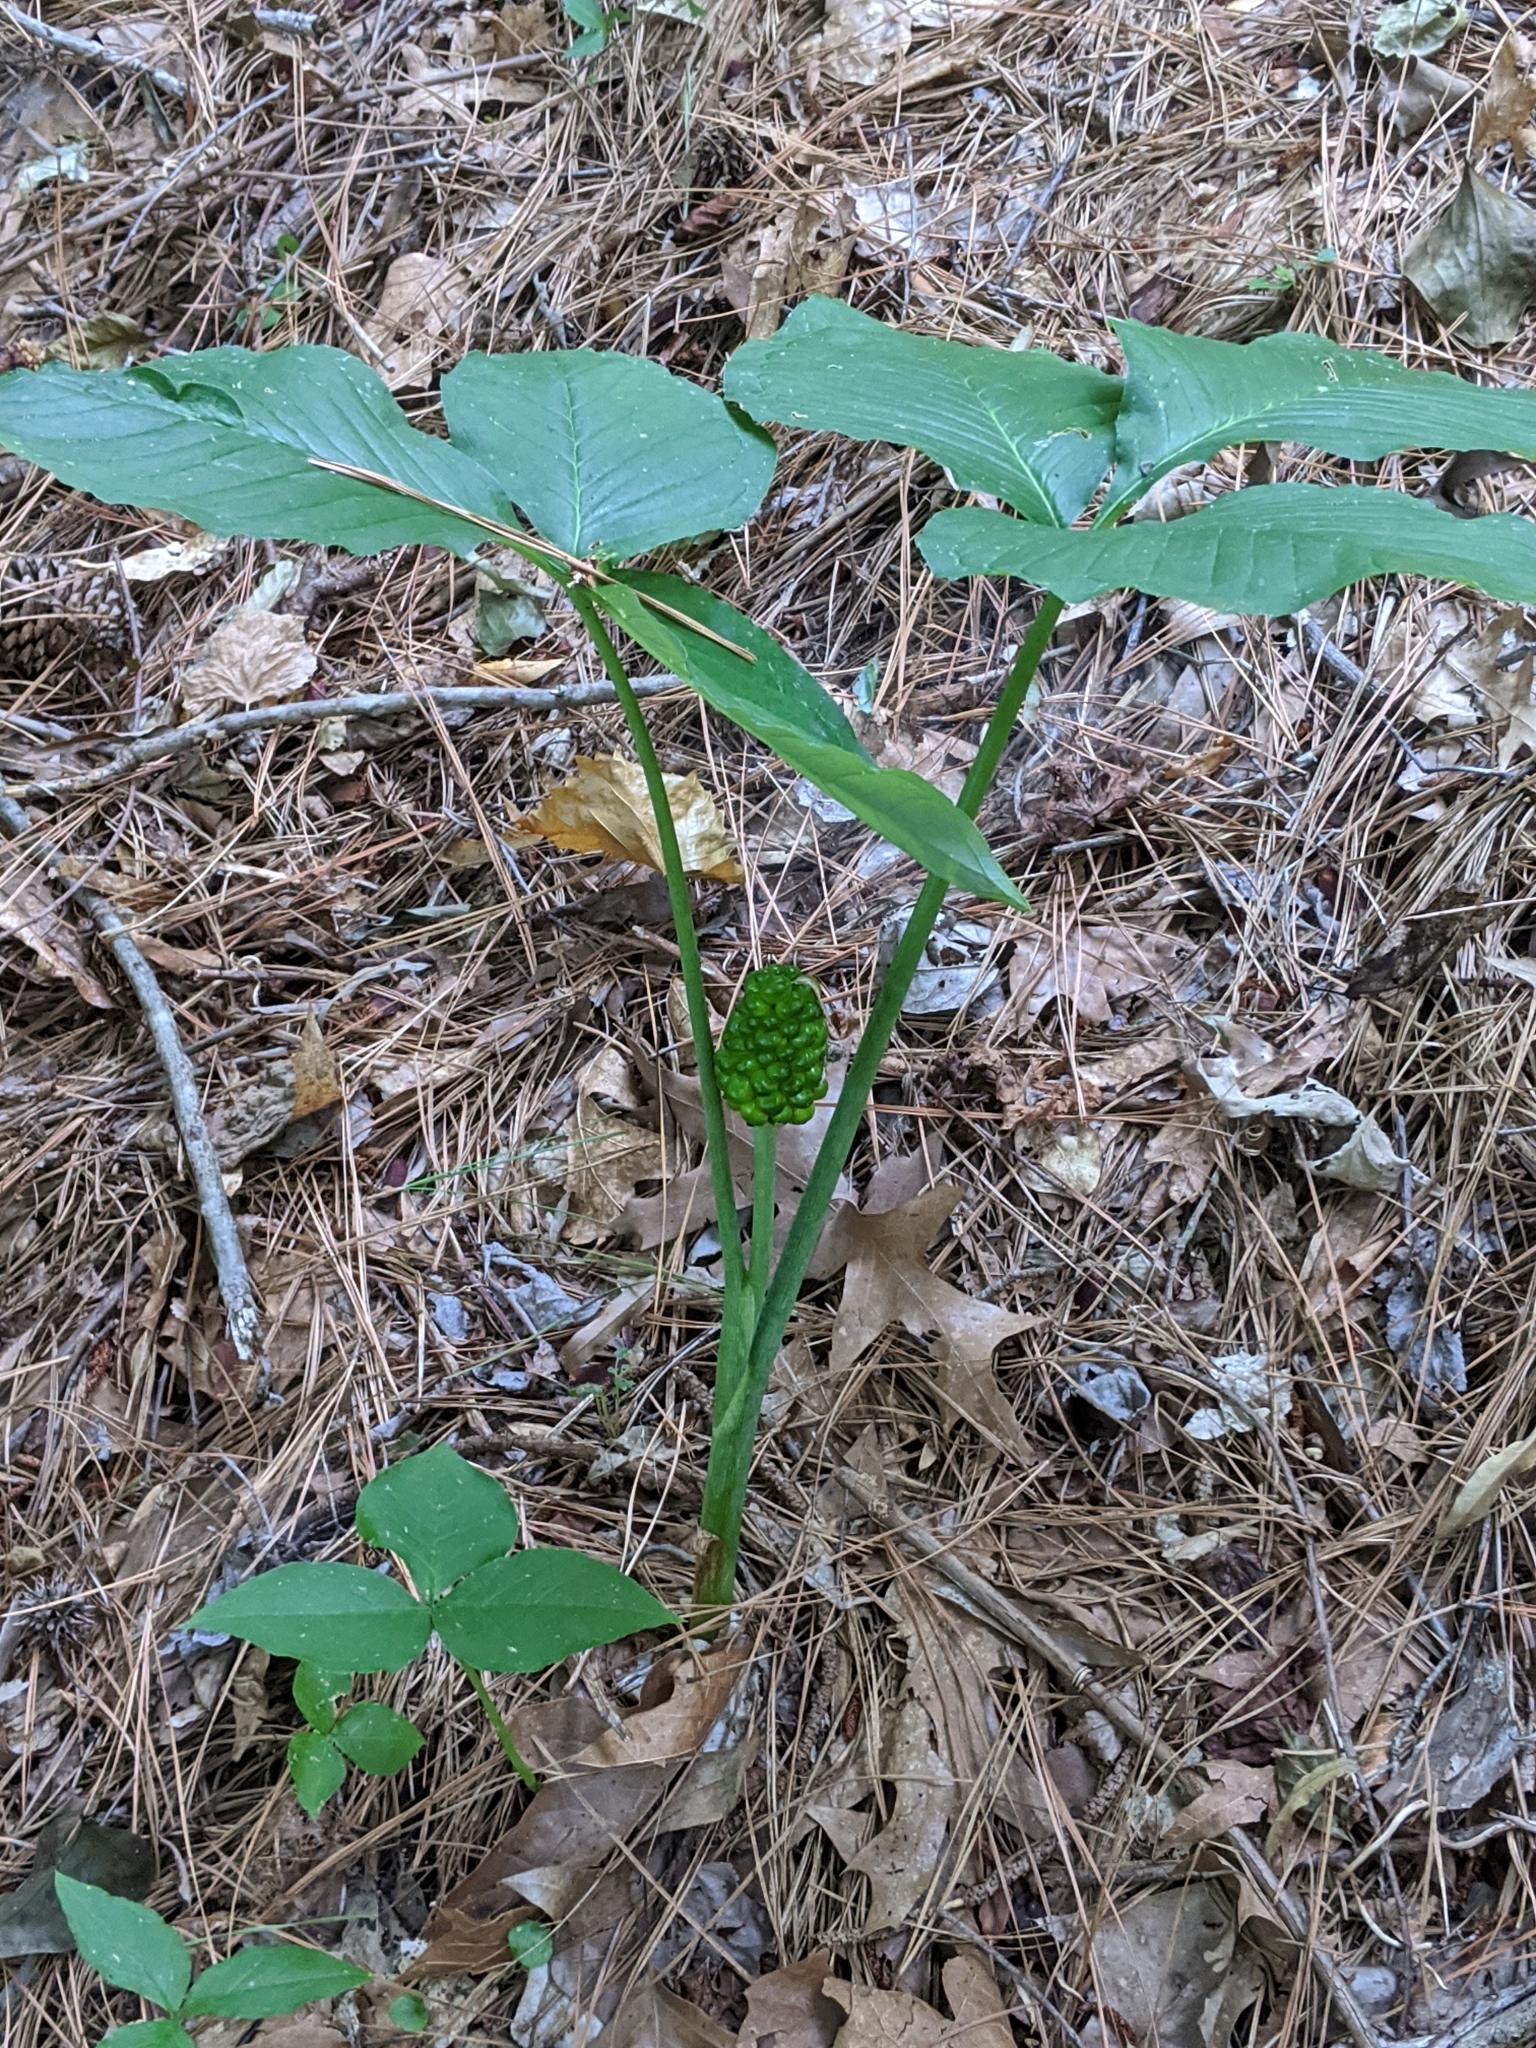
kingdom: Plantae
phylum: Tracheophyta
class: Liliopsida
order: Alismatales
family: Araceae
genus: Arisaema
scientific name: Arisaema triphyllum
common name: Jack-in-the-pulpit
